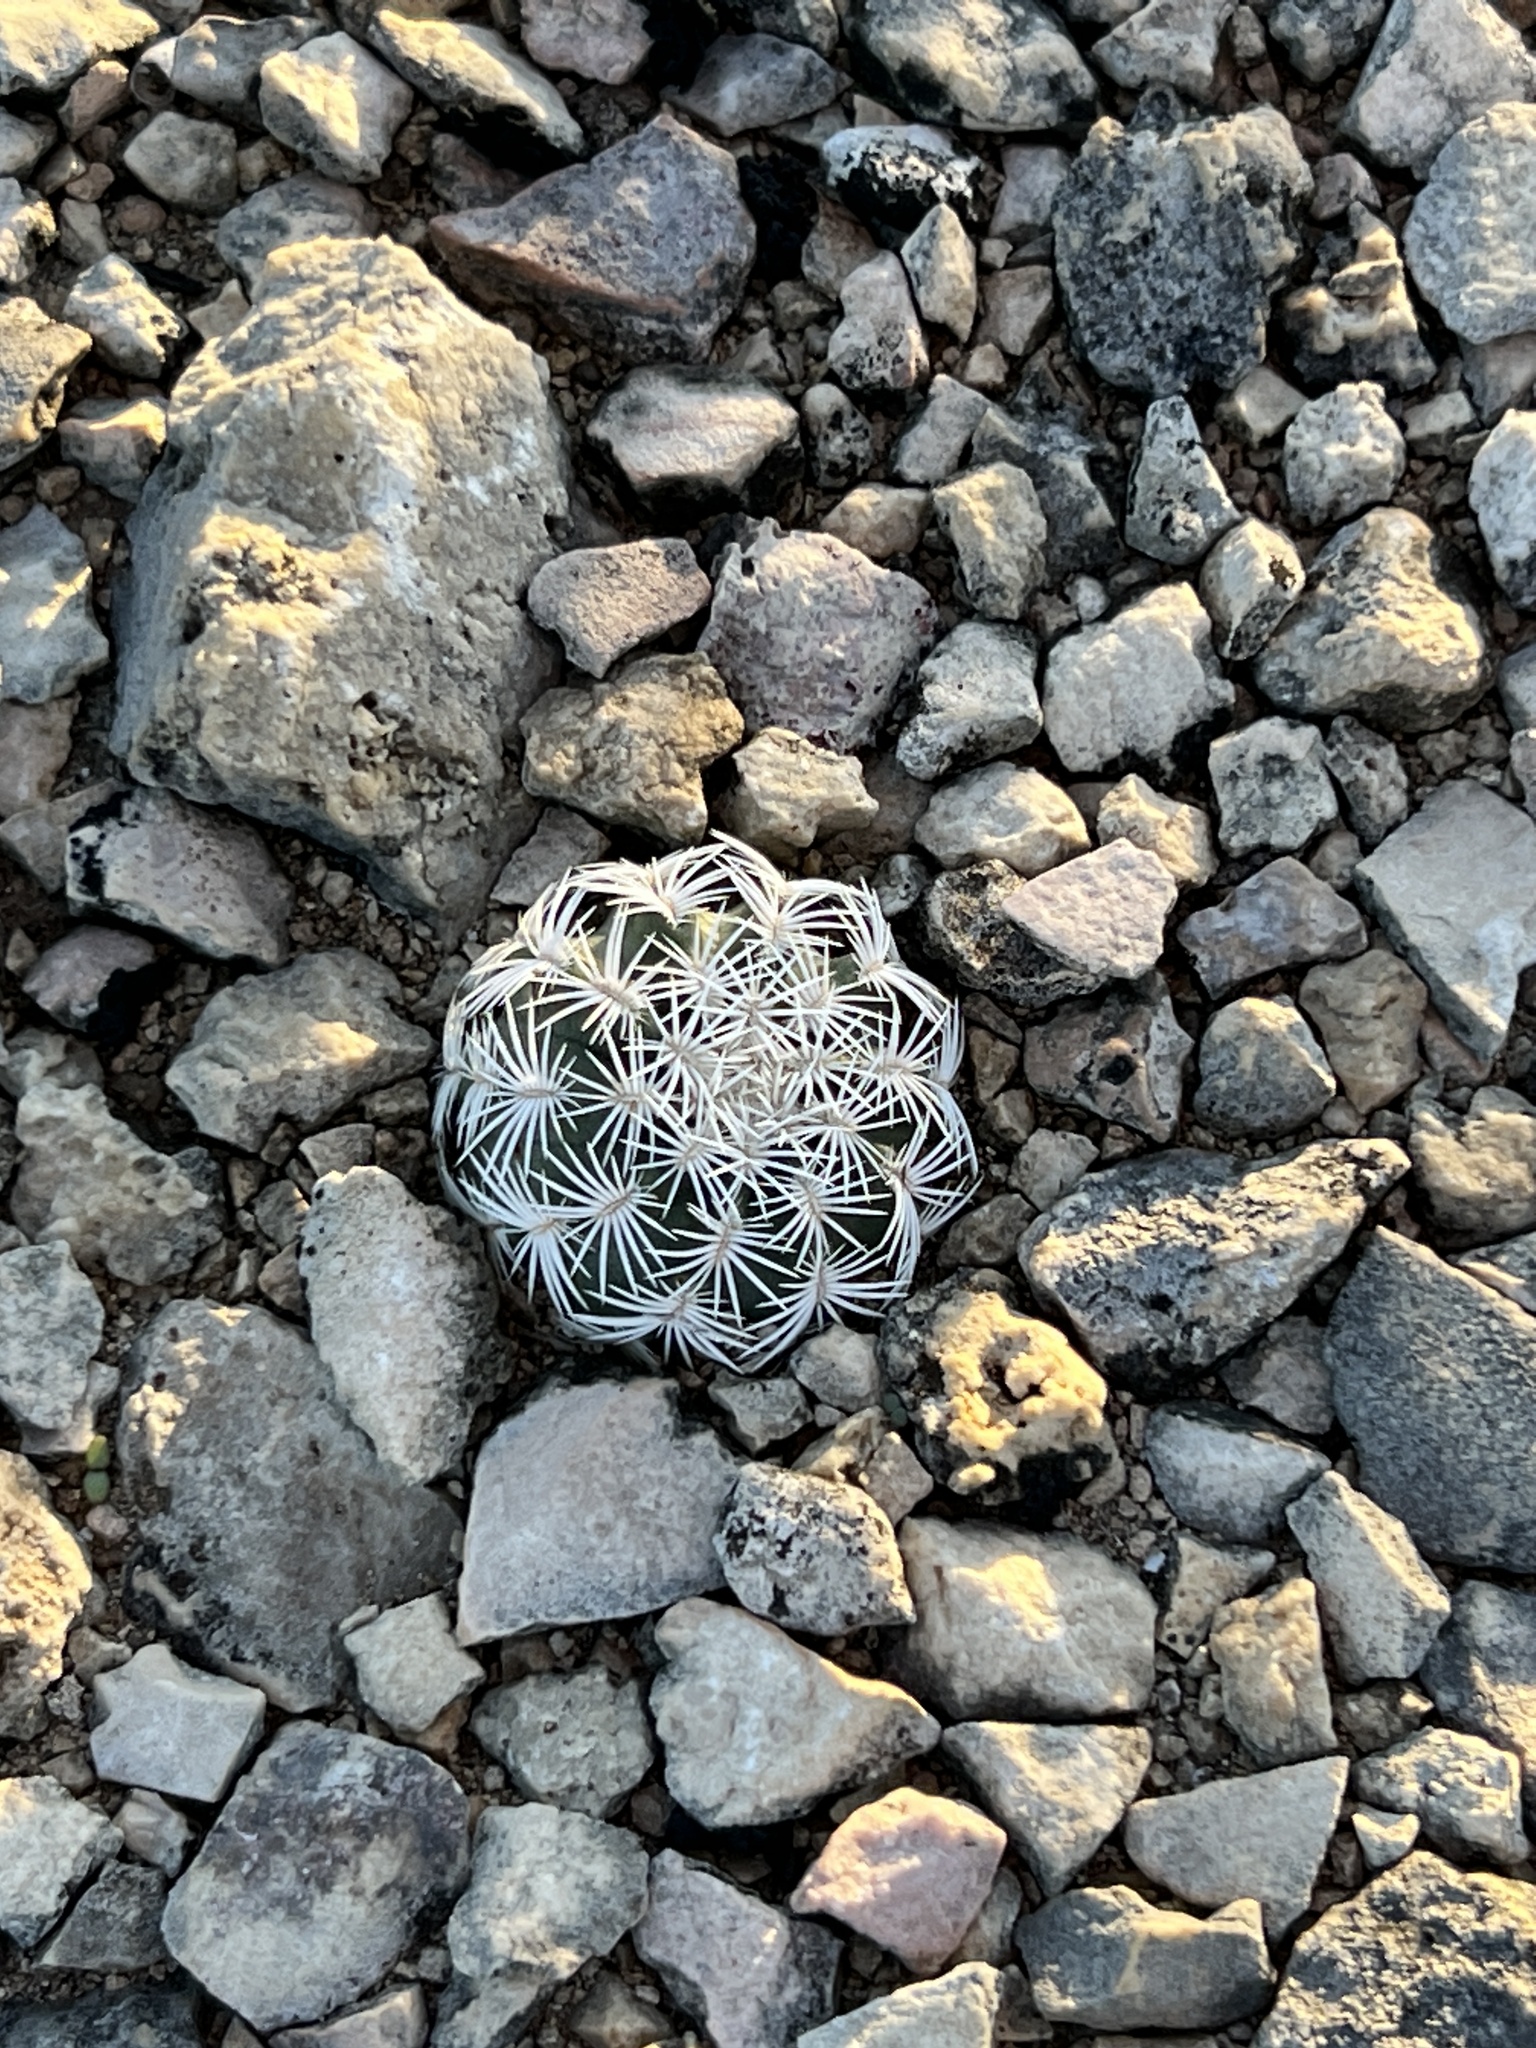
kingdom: Plantae
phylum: Tracheophyta
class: Magnoliopsida
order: Caryophyllales
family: Cactaceae
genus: Echinocereus
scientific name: Echinocereus reichenbachii
